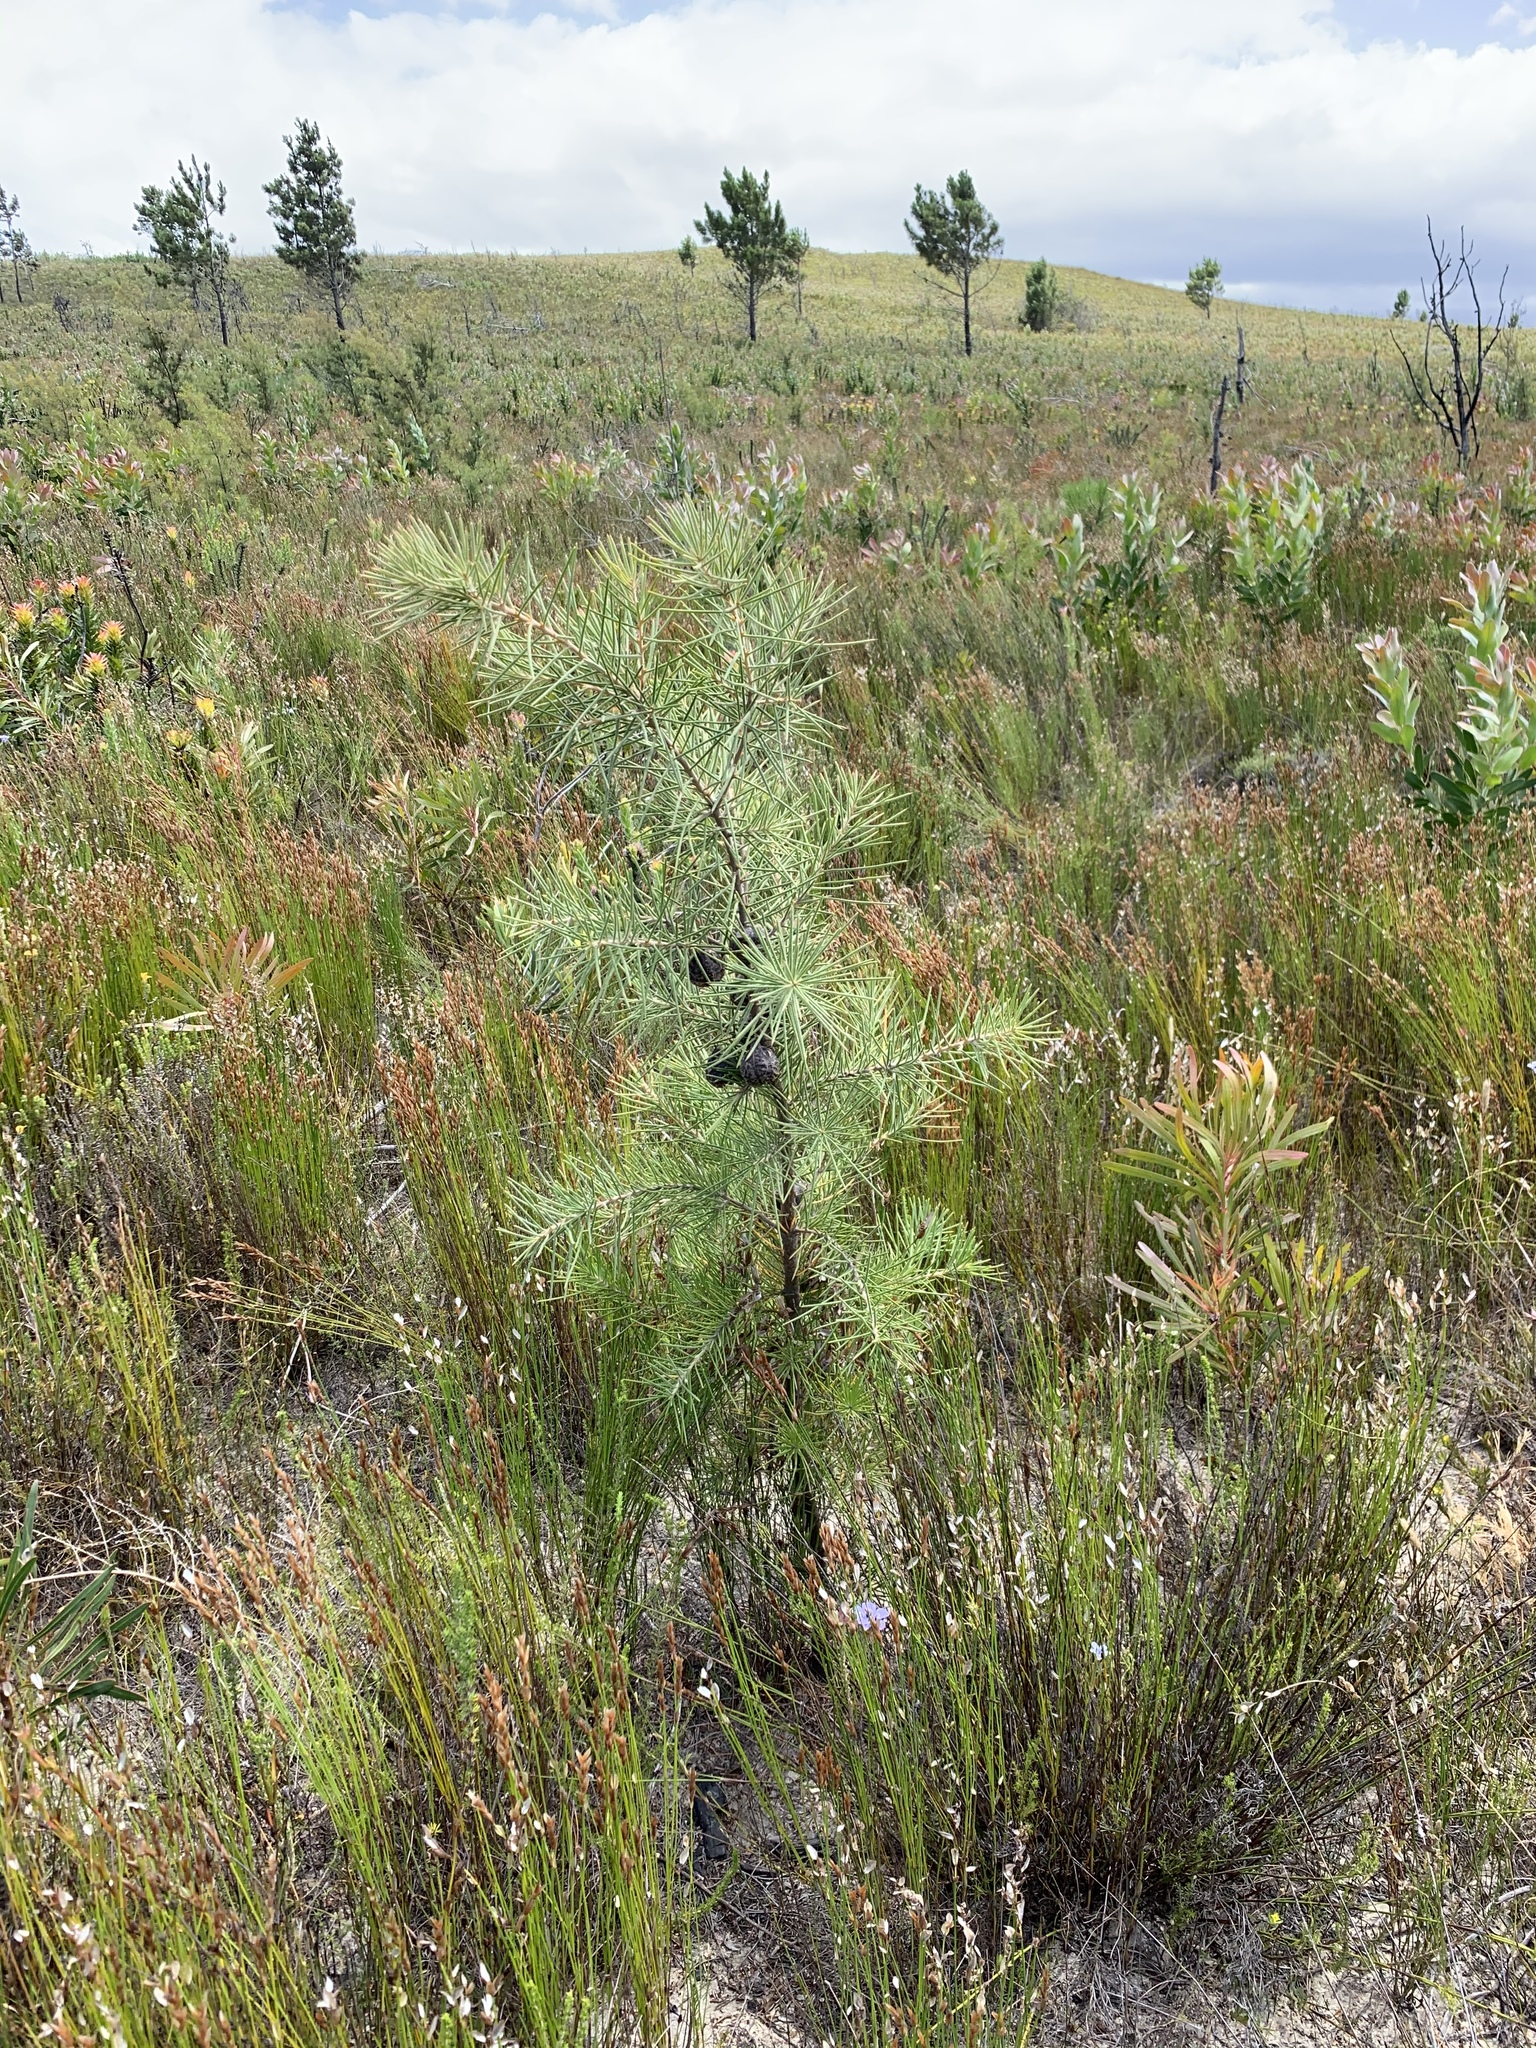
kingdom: Plantae
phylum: Tracheophyta
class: Magnoliopsida
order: Proteales
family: Proteaceae
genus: Hakea
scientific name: Hakea sericea
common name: Needle bush
